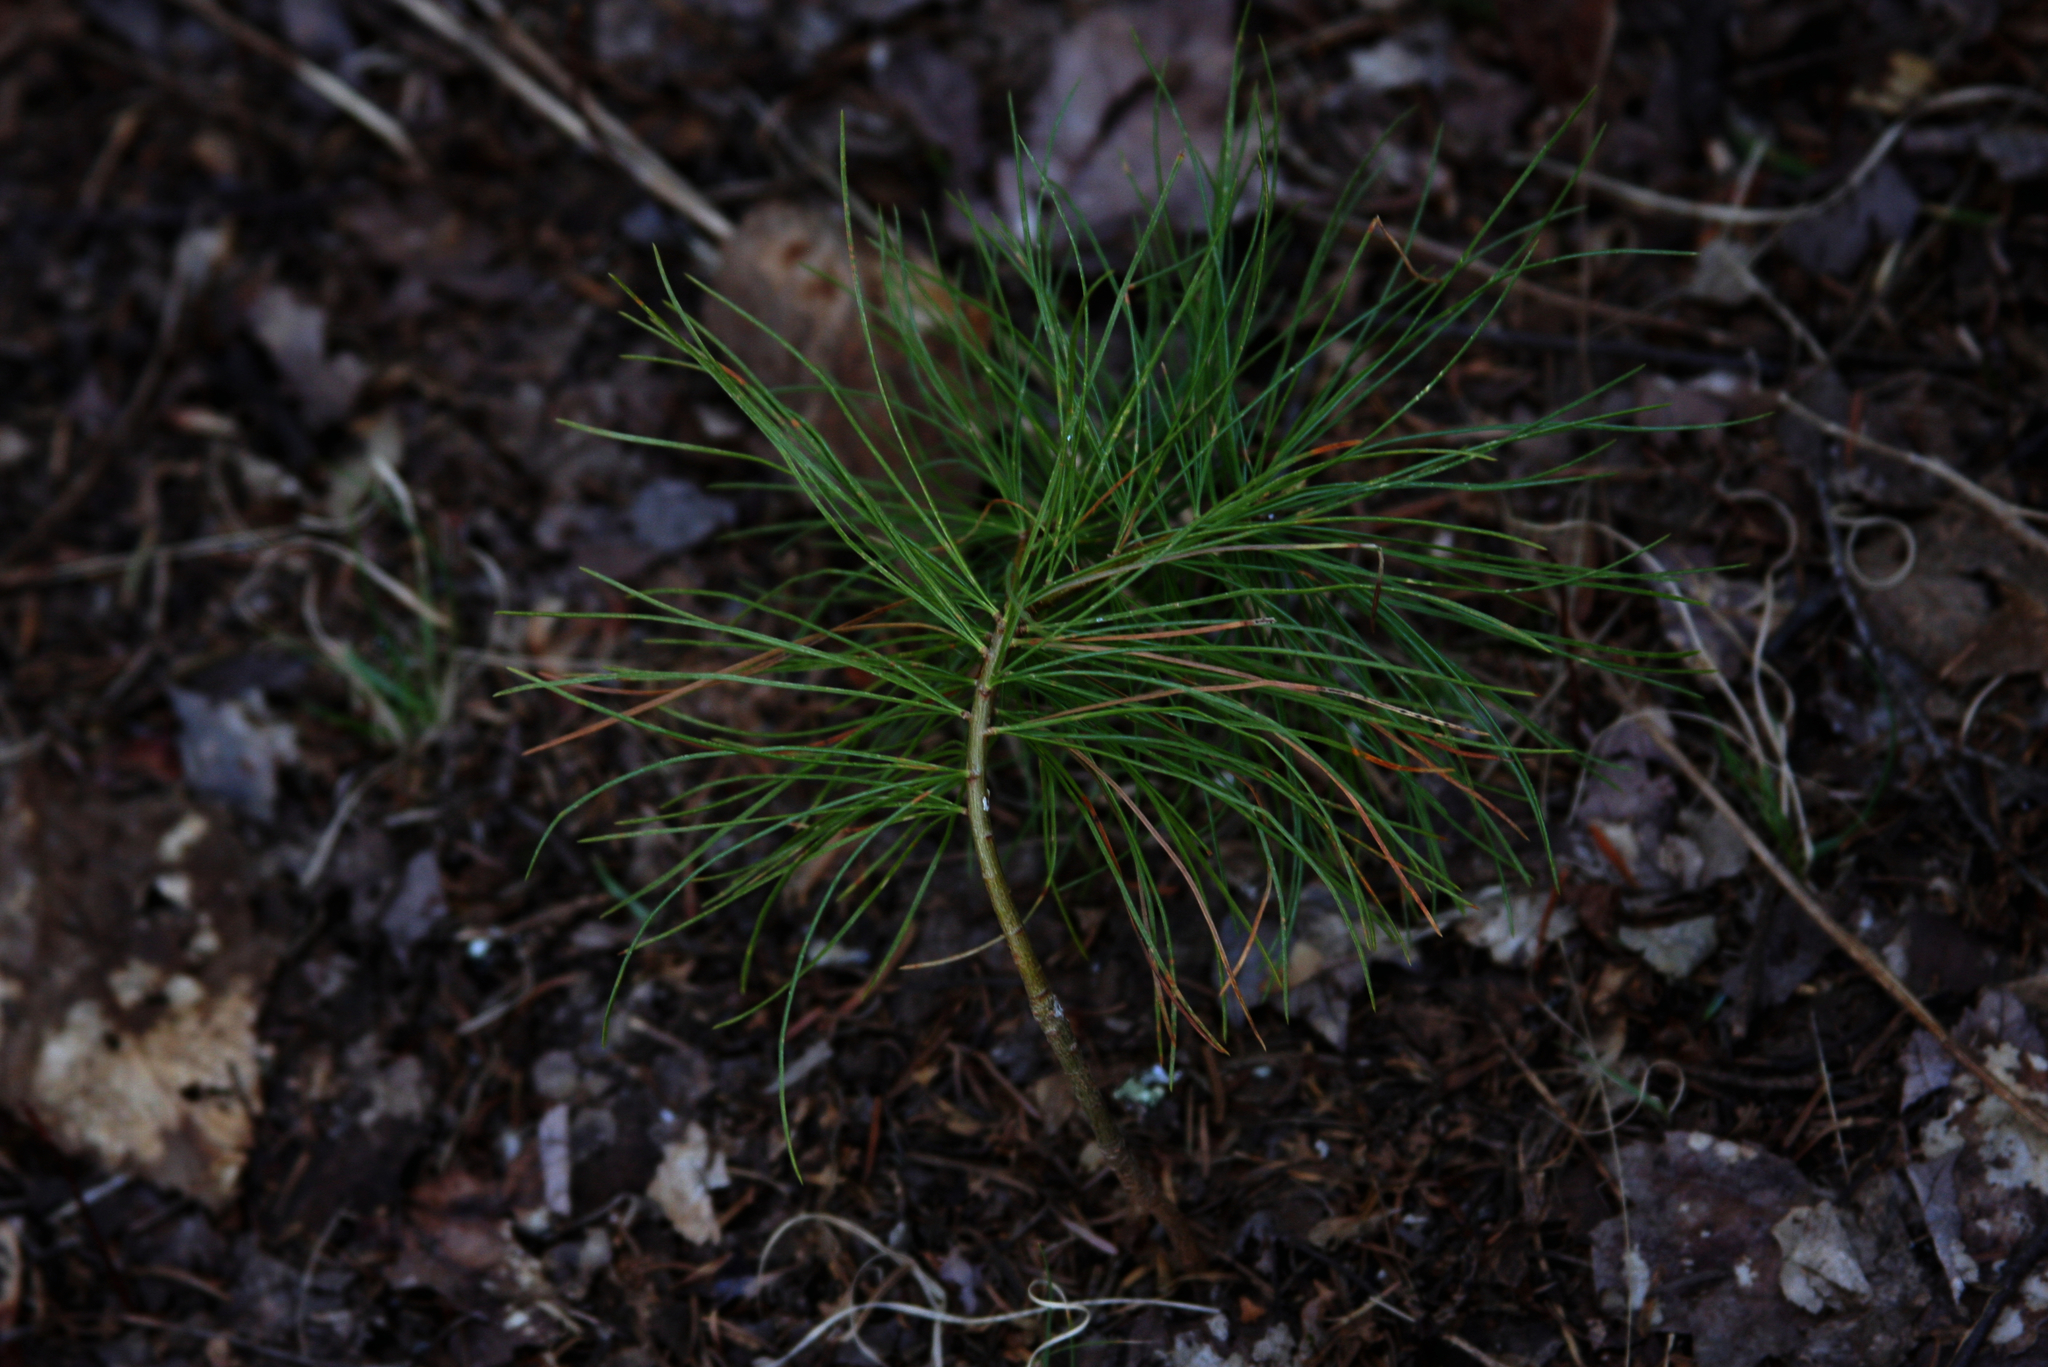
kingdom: Plantae
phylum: Tracheophyta
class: Pinopsida
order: Pinales
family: Pinaceae
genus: Pinus
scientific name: Pinus strobus
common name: Weymouth pine
